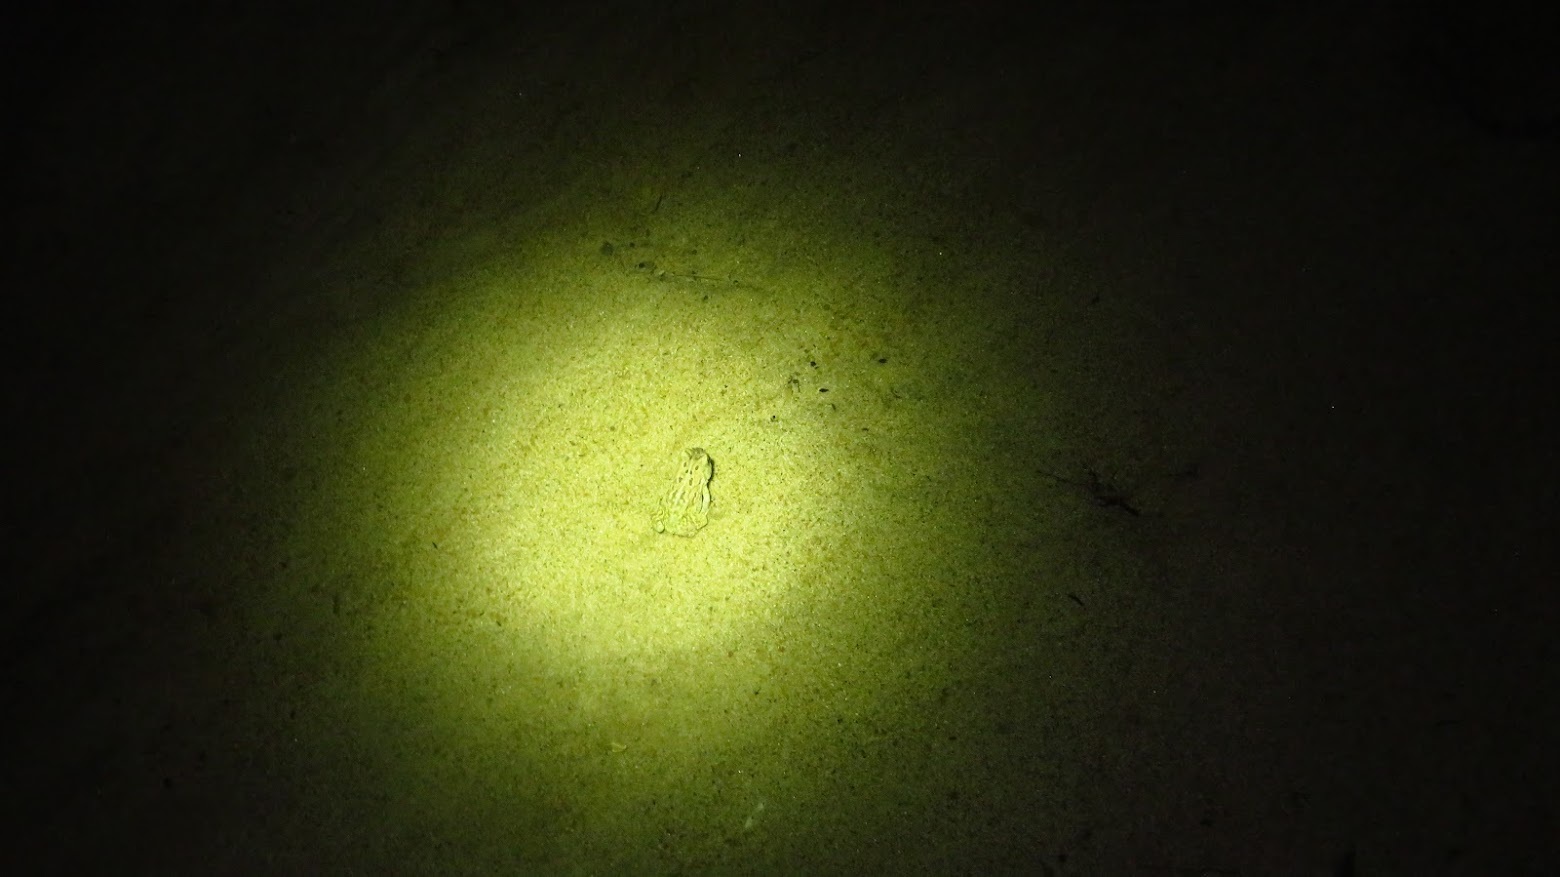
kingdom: Animalia
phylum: Chordata
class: Amphibia
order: Anura
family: Bufonidae
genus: Anaxyrus
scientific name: Anaxyrus fowleri
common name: Fowler's toad
